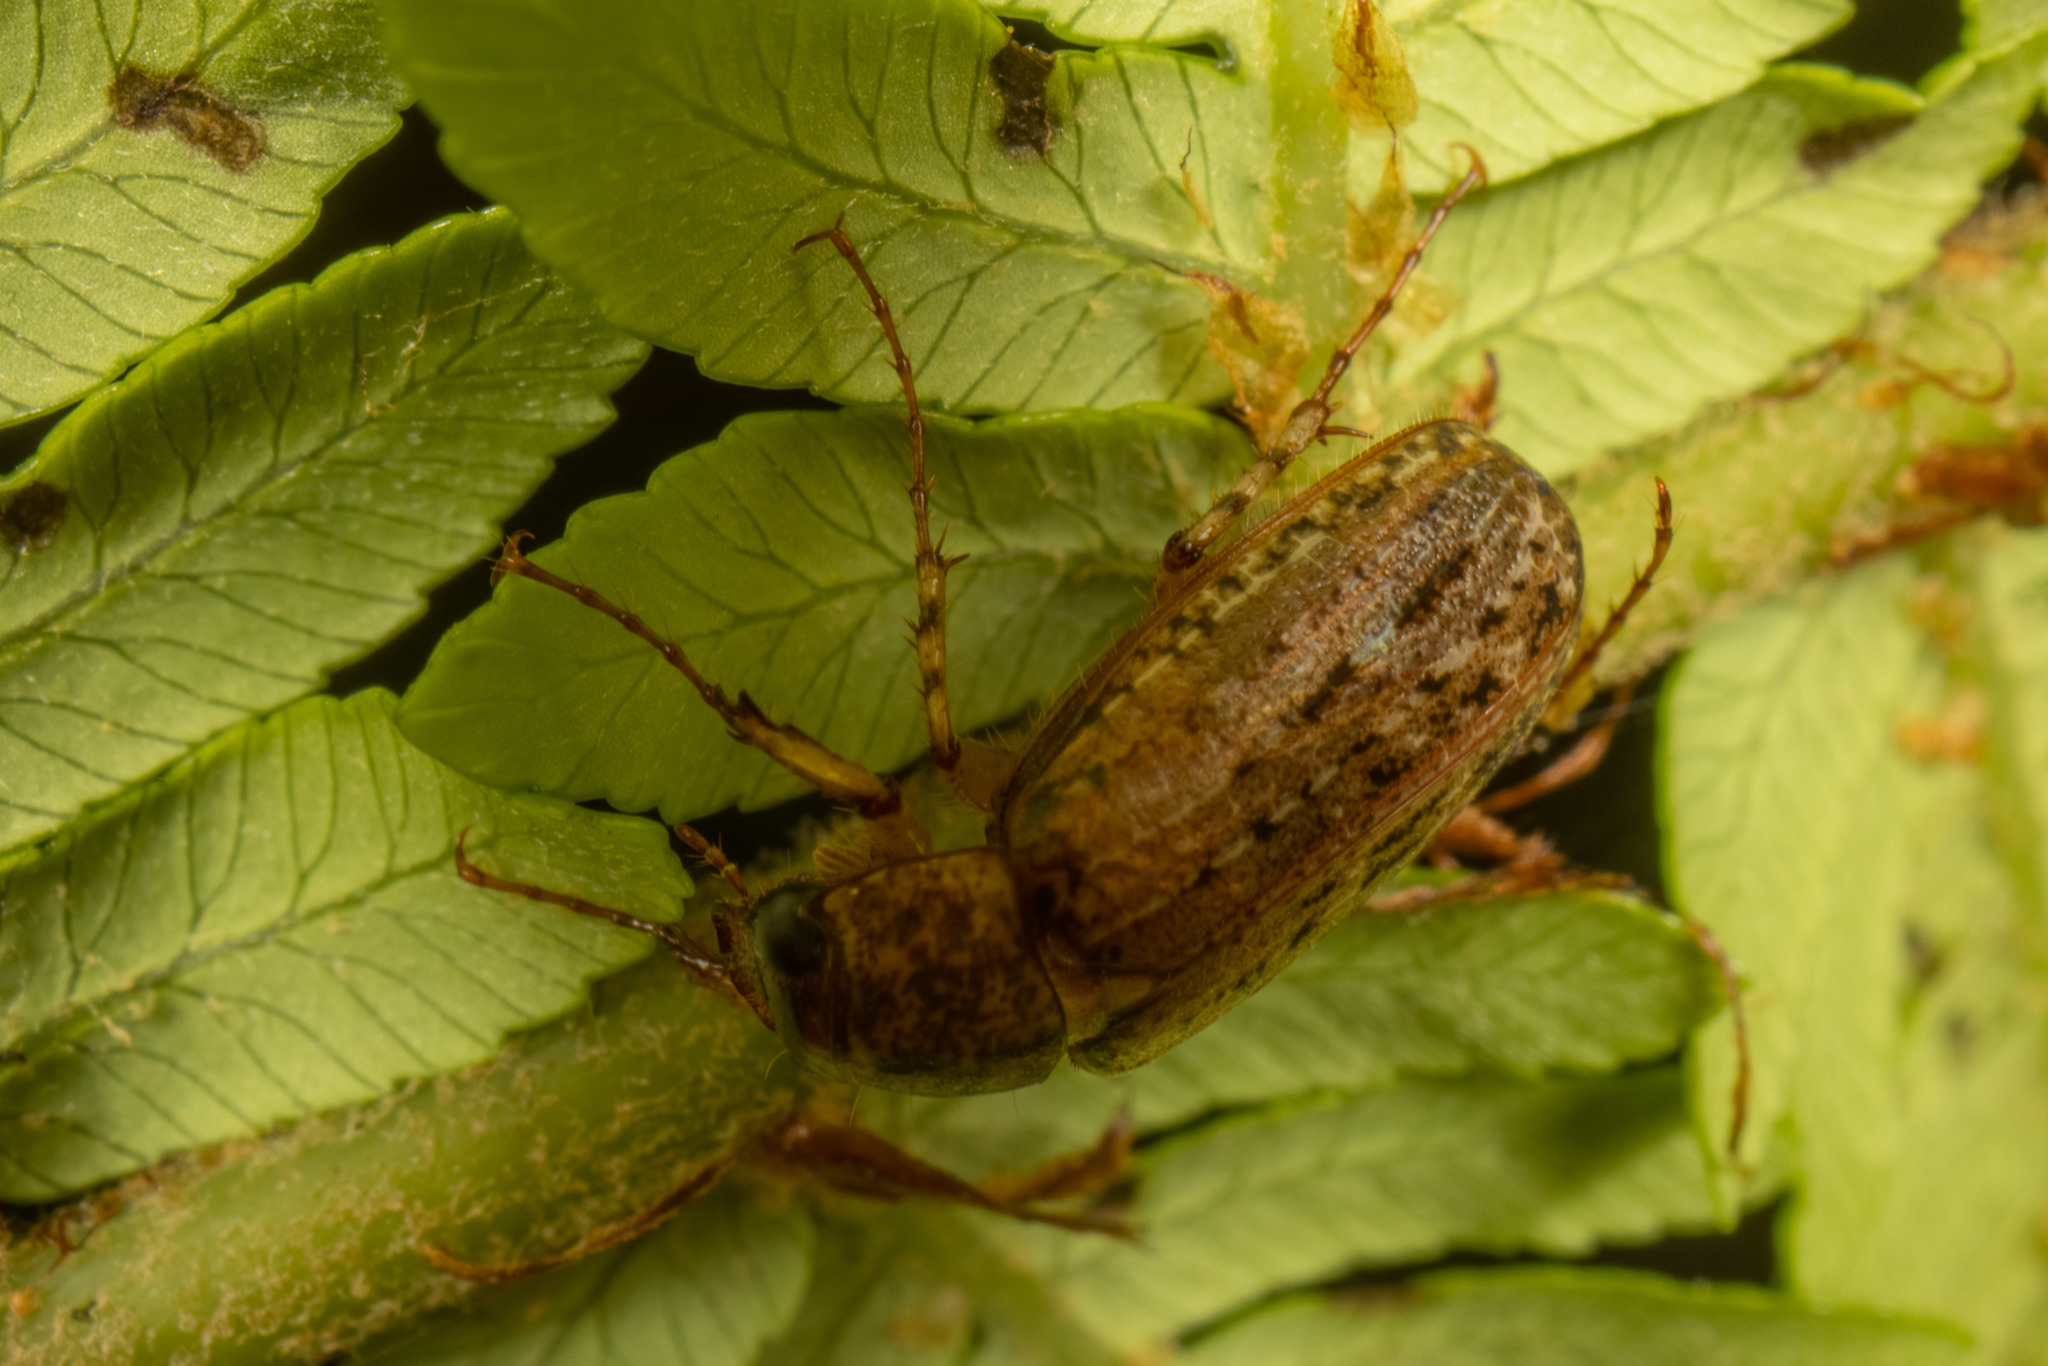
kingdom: Animalia
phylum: Arthropoda
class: Insecta
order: Coleoptera
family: Scarabaeidae
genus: Sericospilus
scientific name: Sericospilus costella
